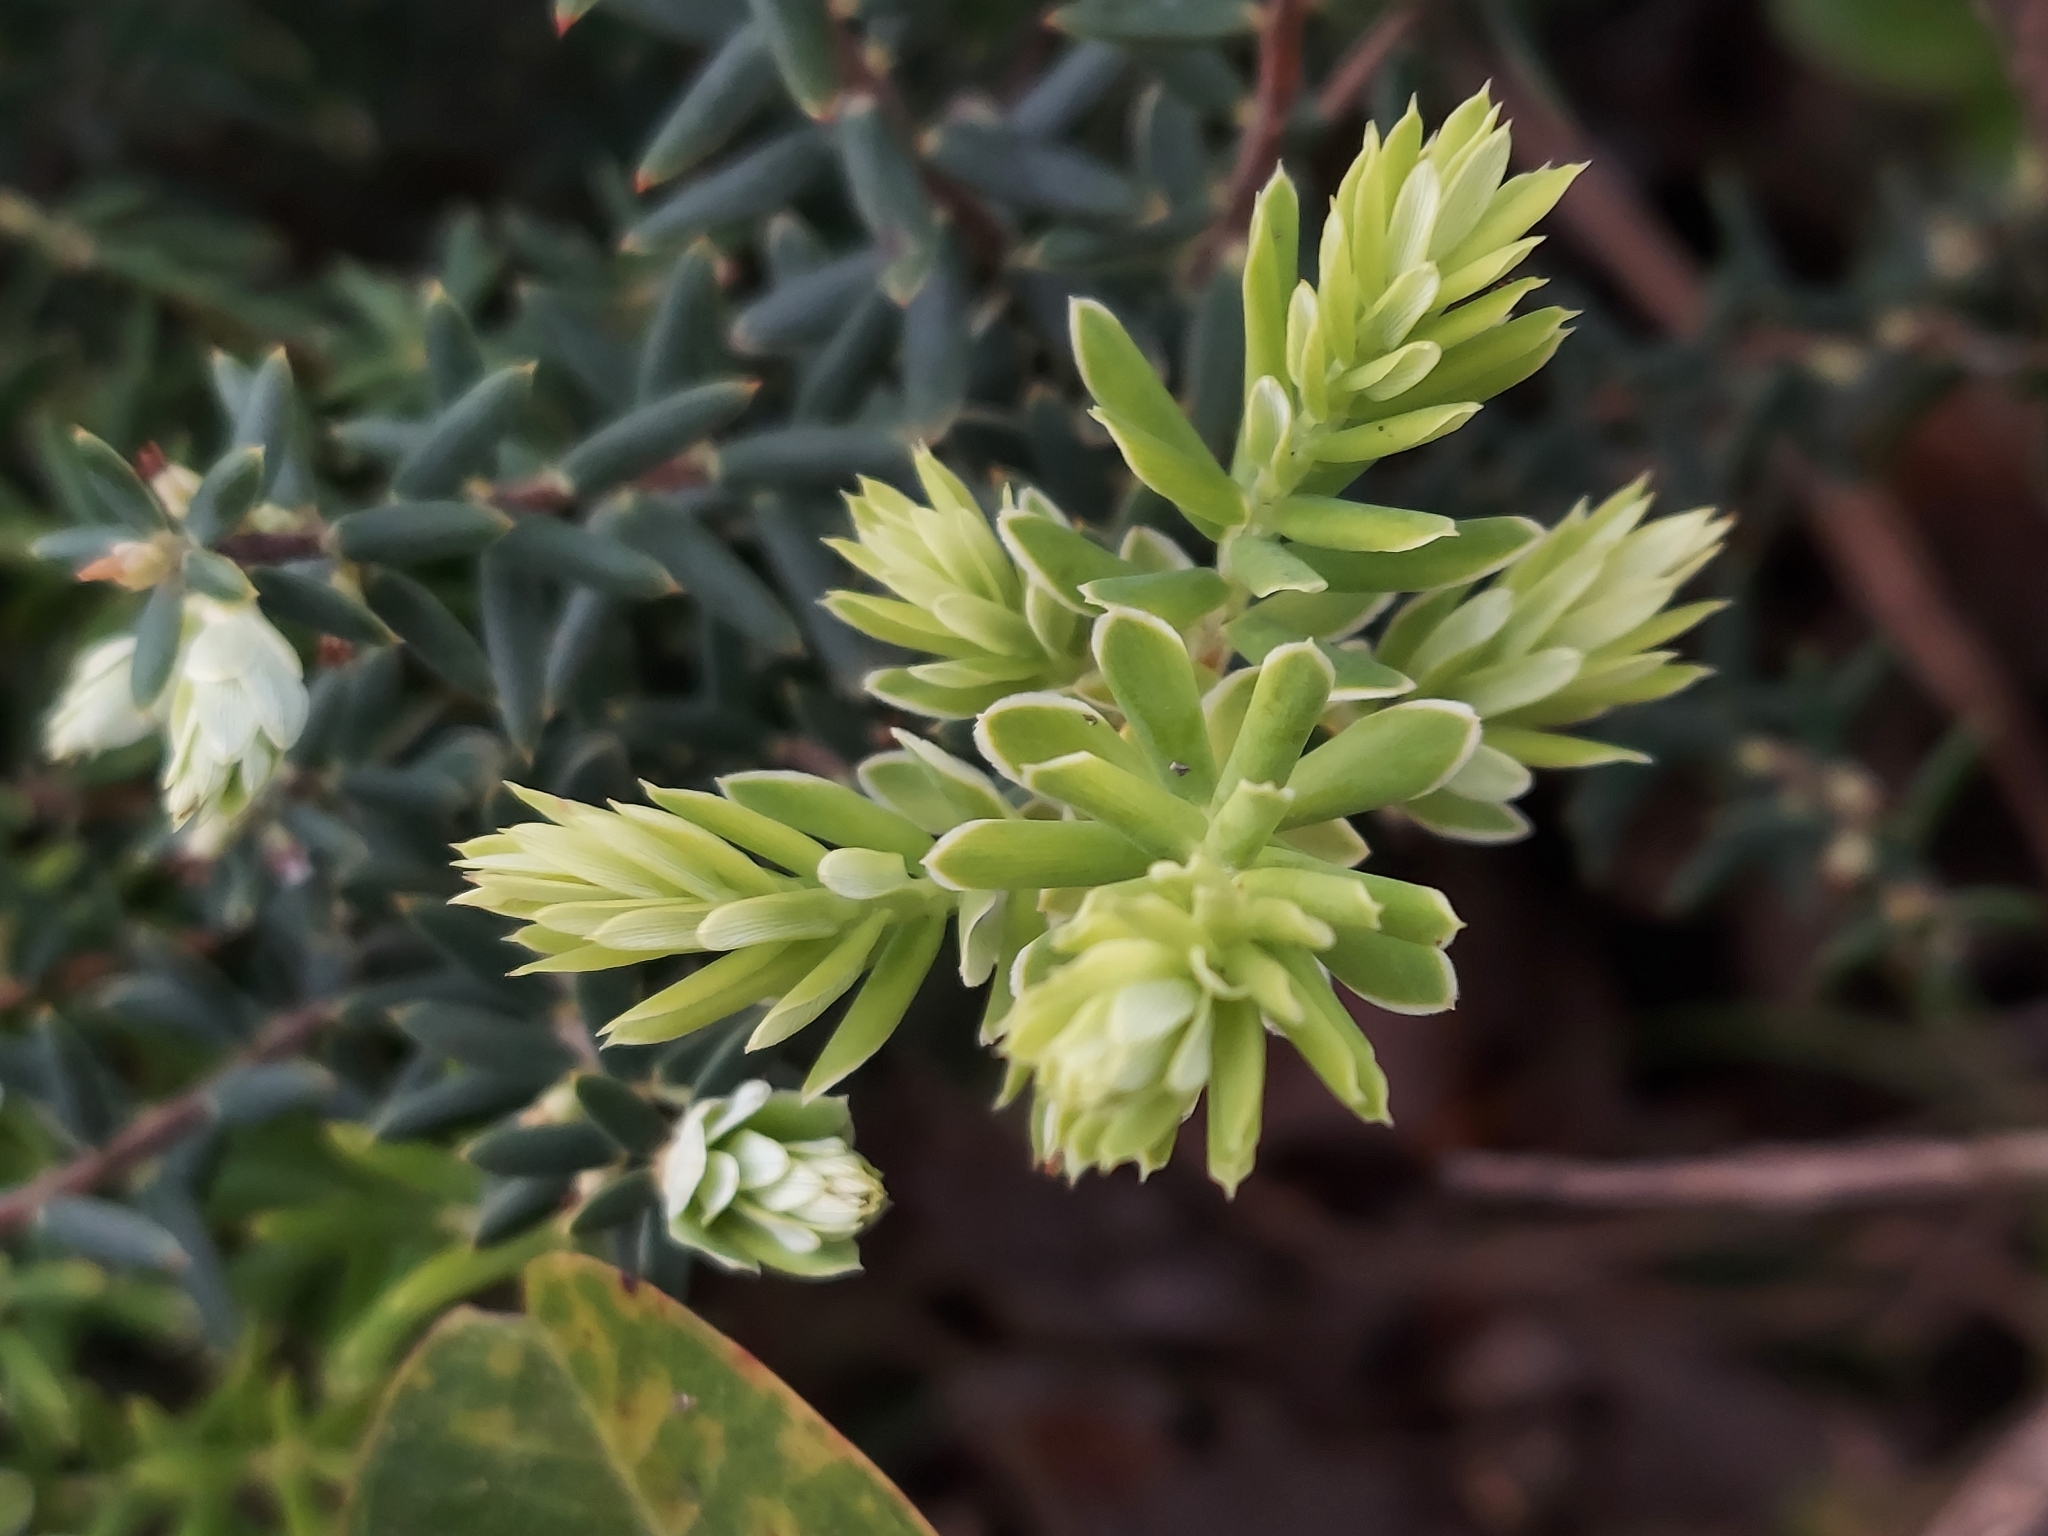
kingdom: Plantae
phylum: Tracheophyta
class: Magnoliopsida
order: Ericales
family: Ericaceae
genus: Leptecophylla
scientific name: Leptecophylla tameiameiae
